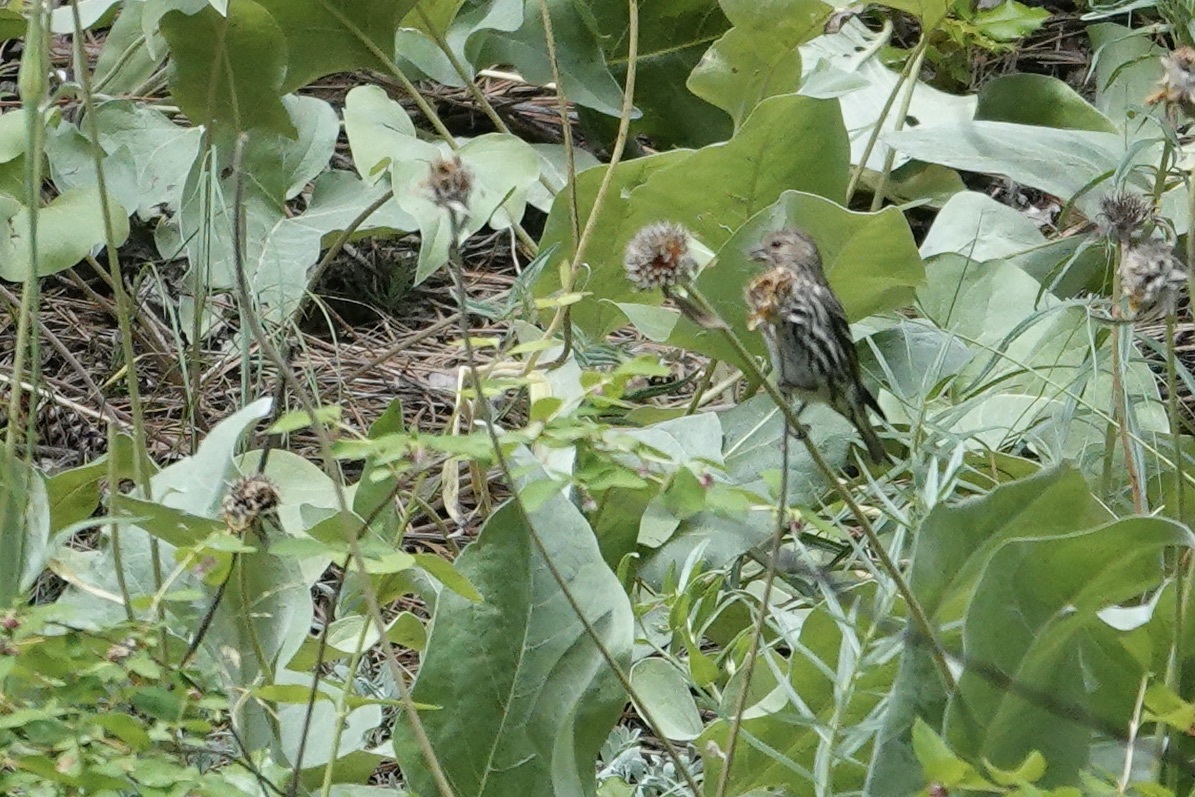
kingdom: Animalia
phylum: Chordata
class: Aves
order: Passeriformes
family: Fringillidae
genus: Spinus
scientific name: Spinus pinus
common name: Pine siskin
